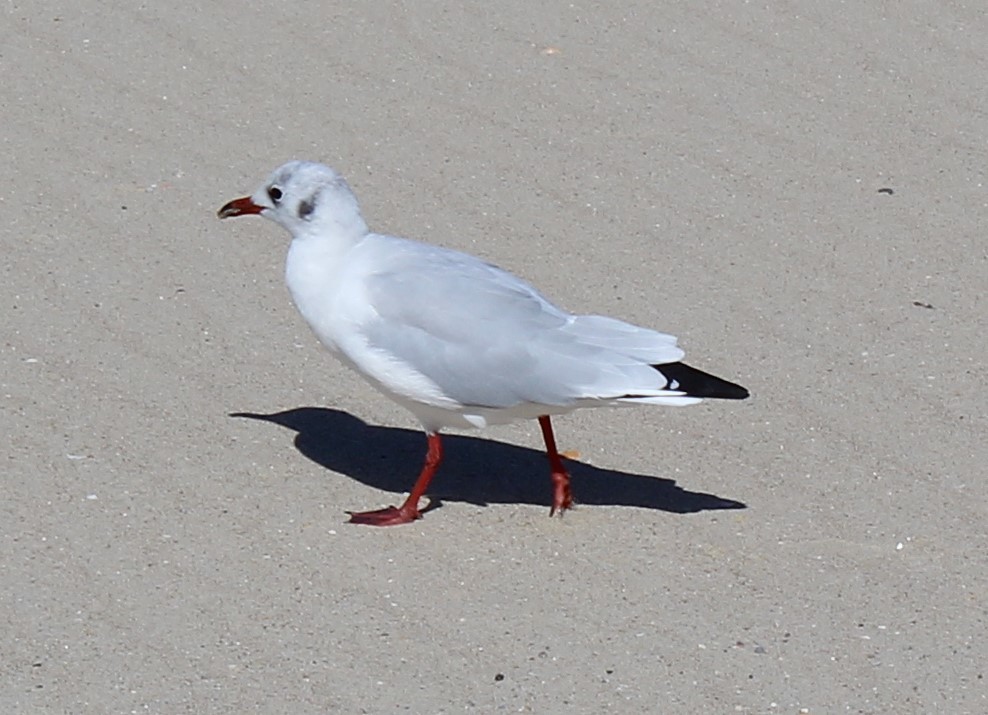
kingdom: Animalia
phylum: Chordata
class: Aves
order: Charadriiformes
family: Laridae
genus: Chroicocephalus
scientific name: Chroicocephalus ridibundus
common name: Black-headed gull
